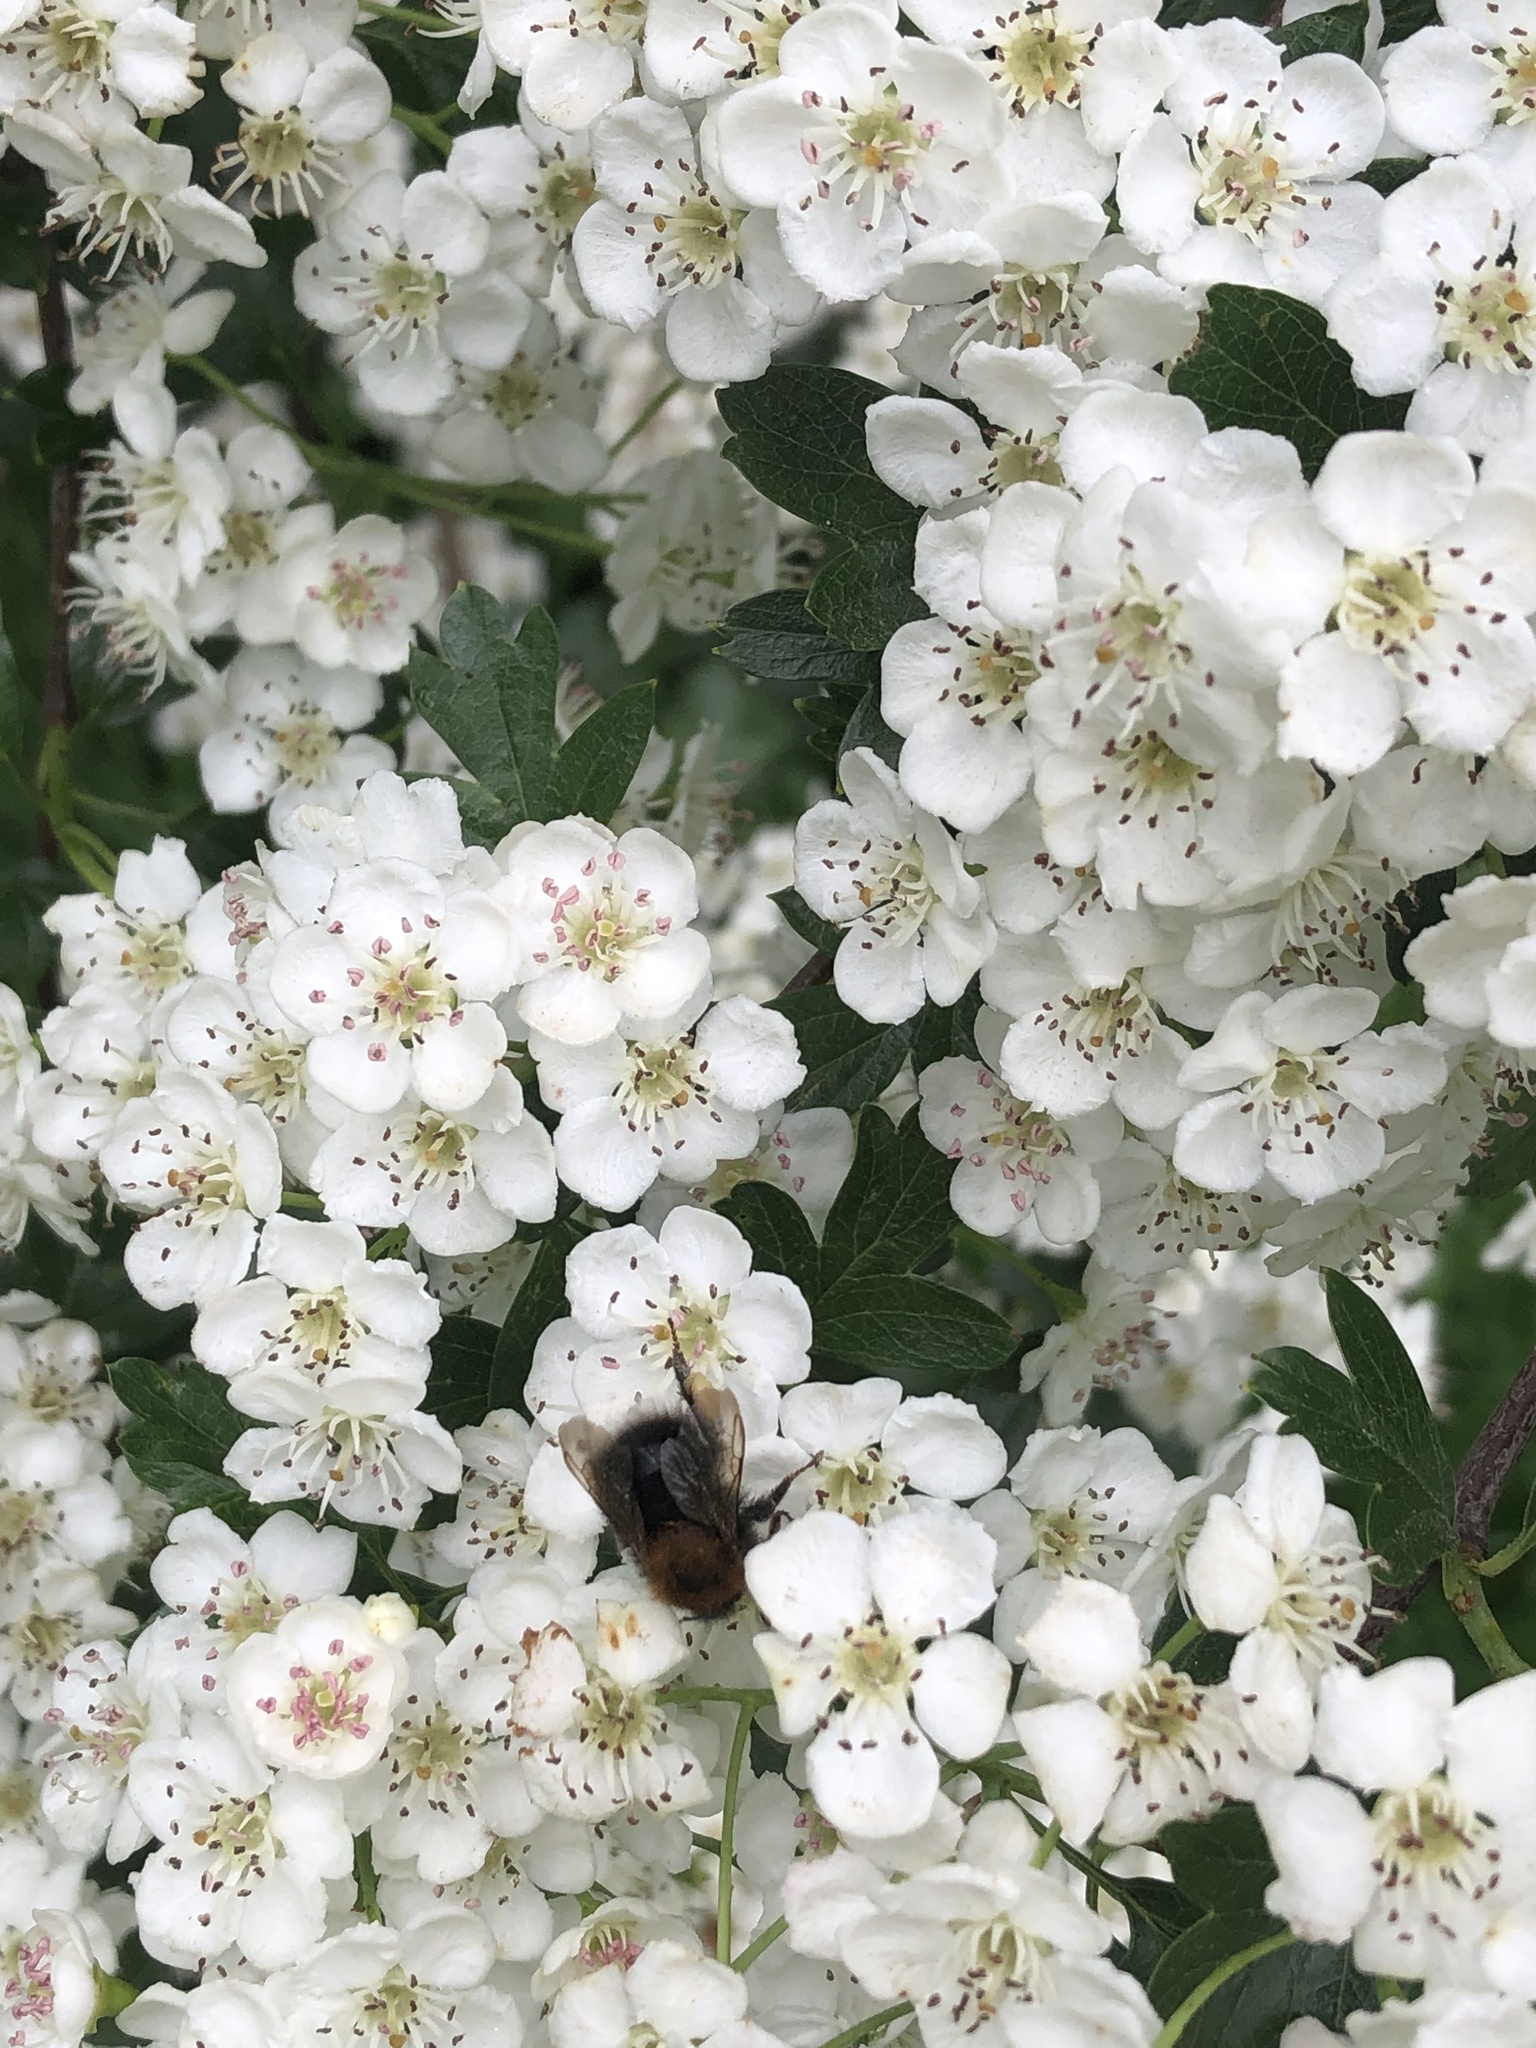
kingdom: Animalia
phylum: Arthropoda
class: Insecta
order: Hymenoptera
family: Apidae
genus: Bombus
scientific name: Bombus hypnorum
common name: New garden bumblebee
